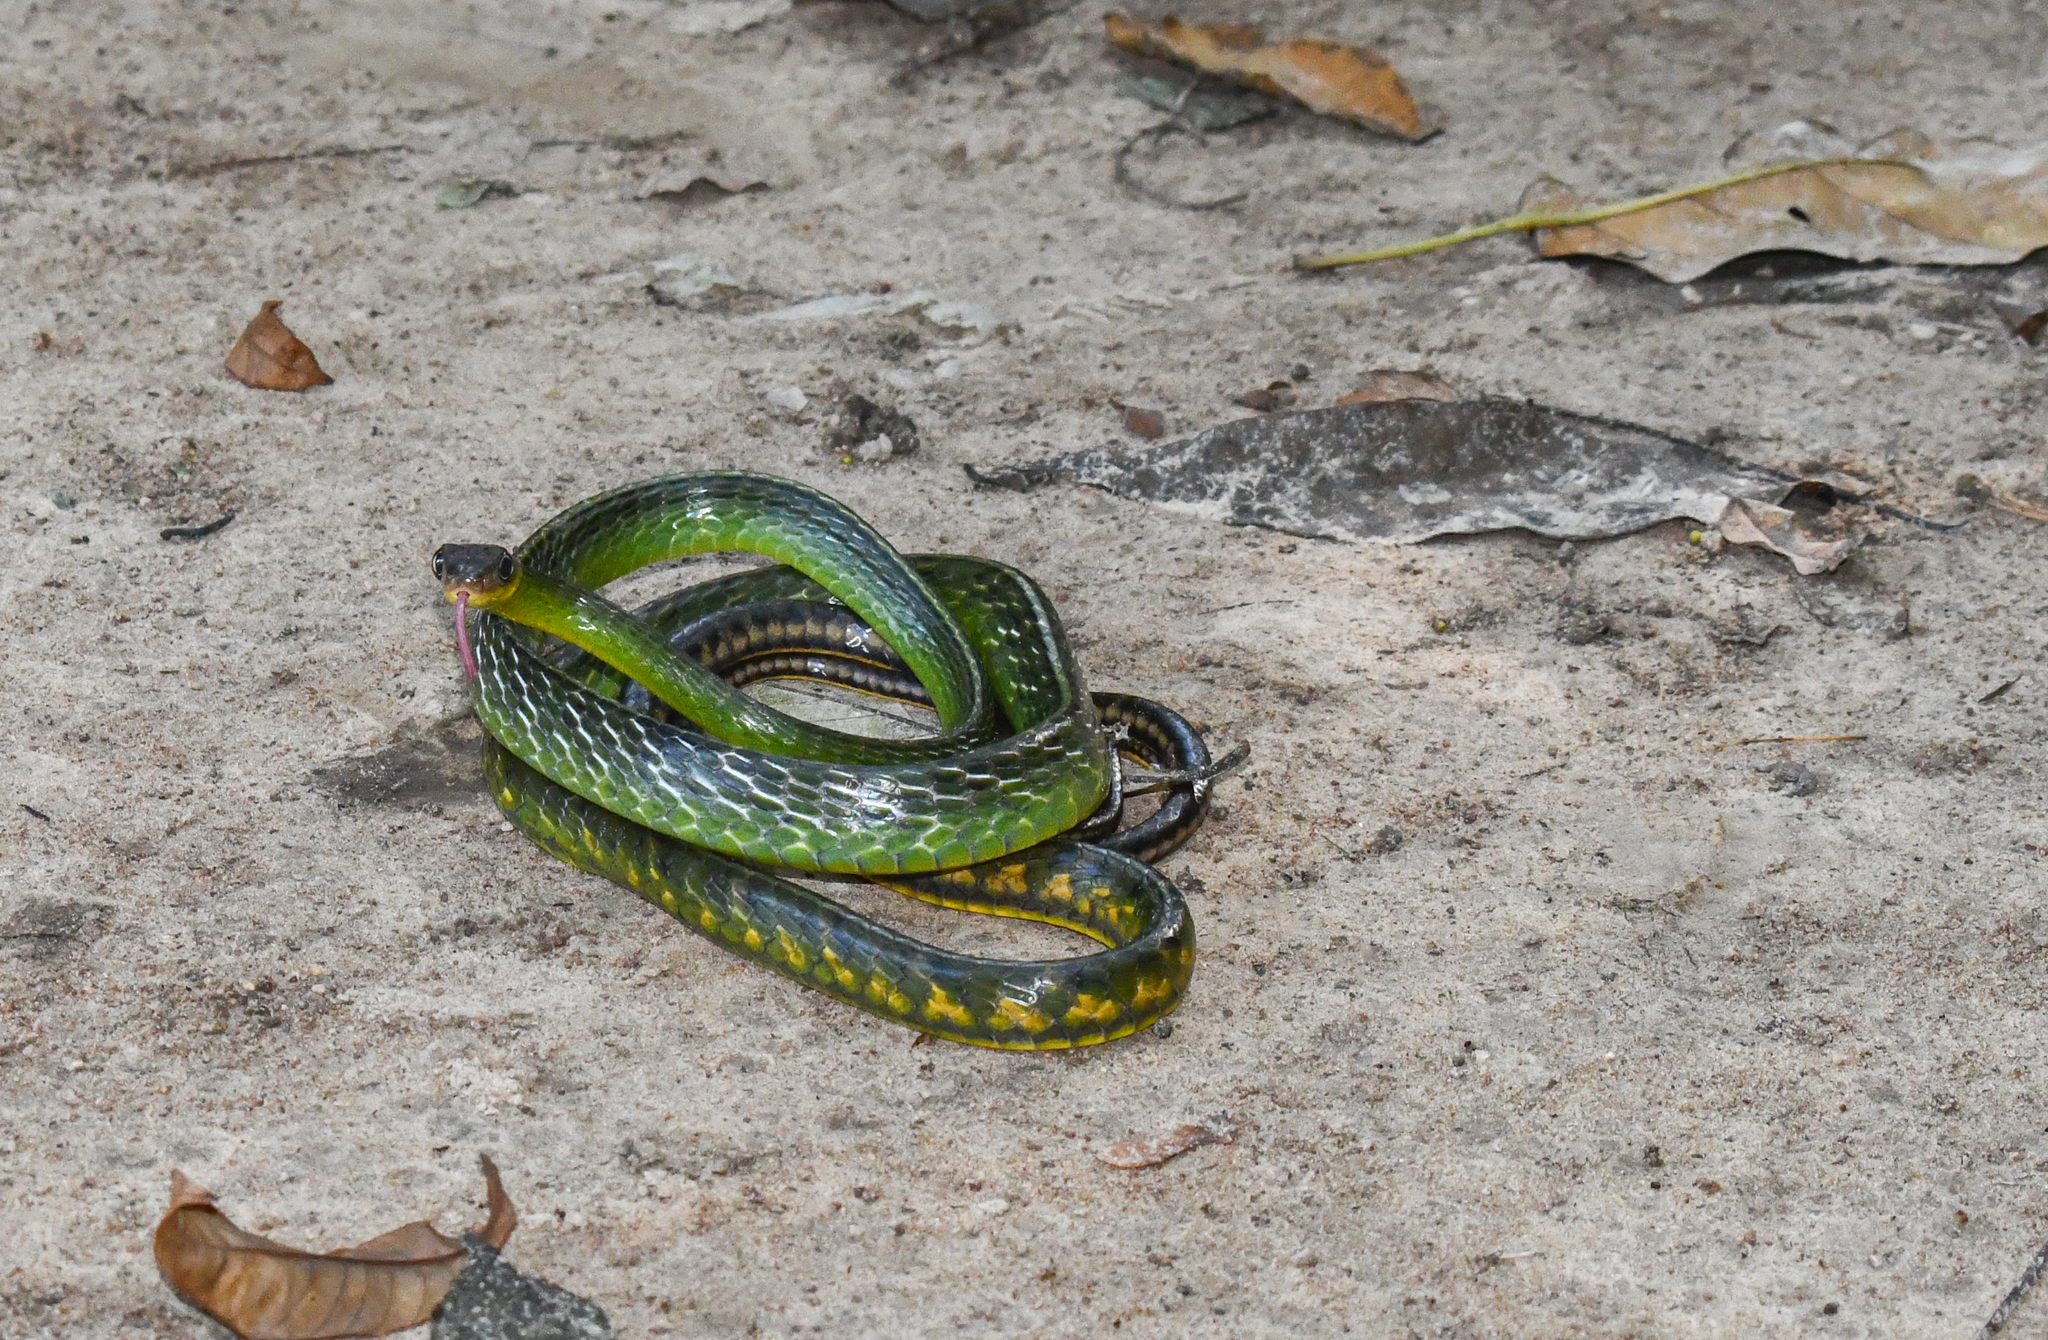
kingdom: Animalia
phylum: Chordata
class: Squamata
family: Colubridae
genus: Chironius
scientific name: Chironius exoletus
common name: Linnaeus' sipo
